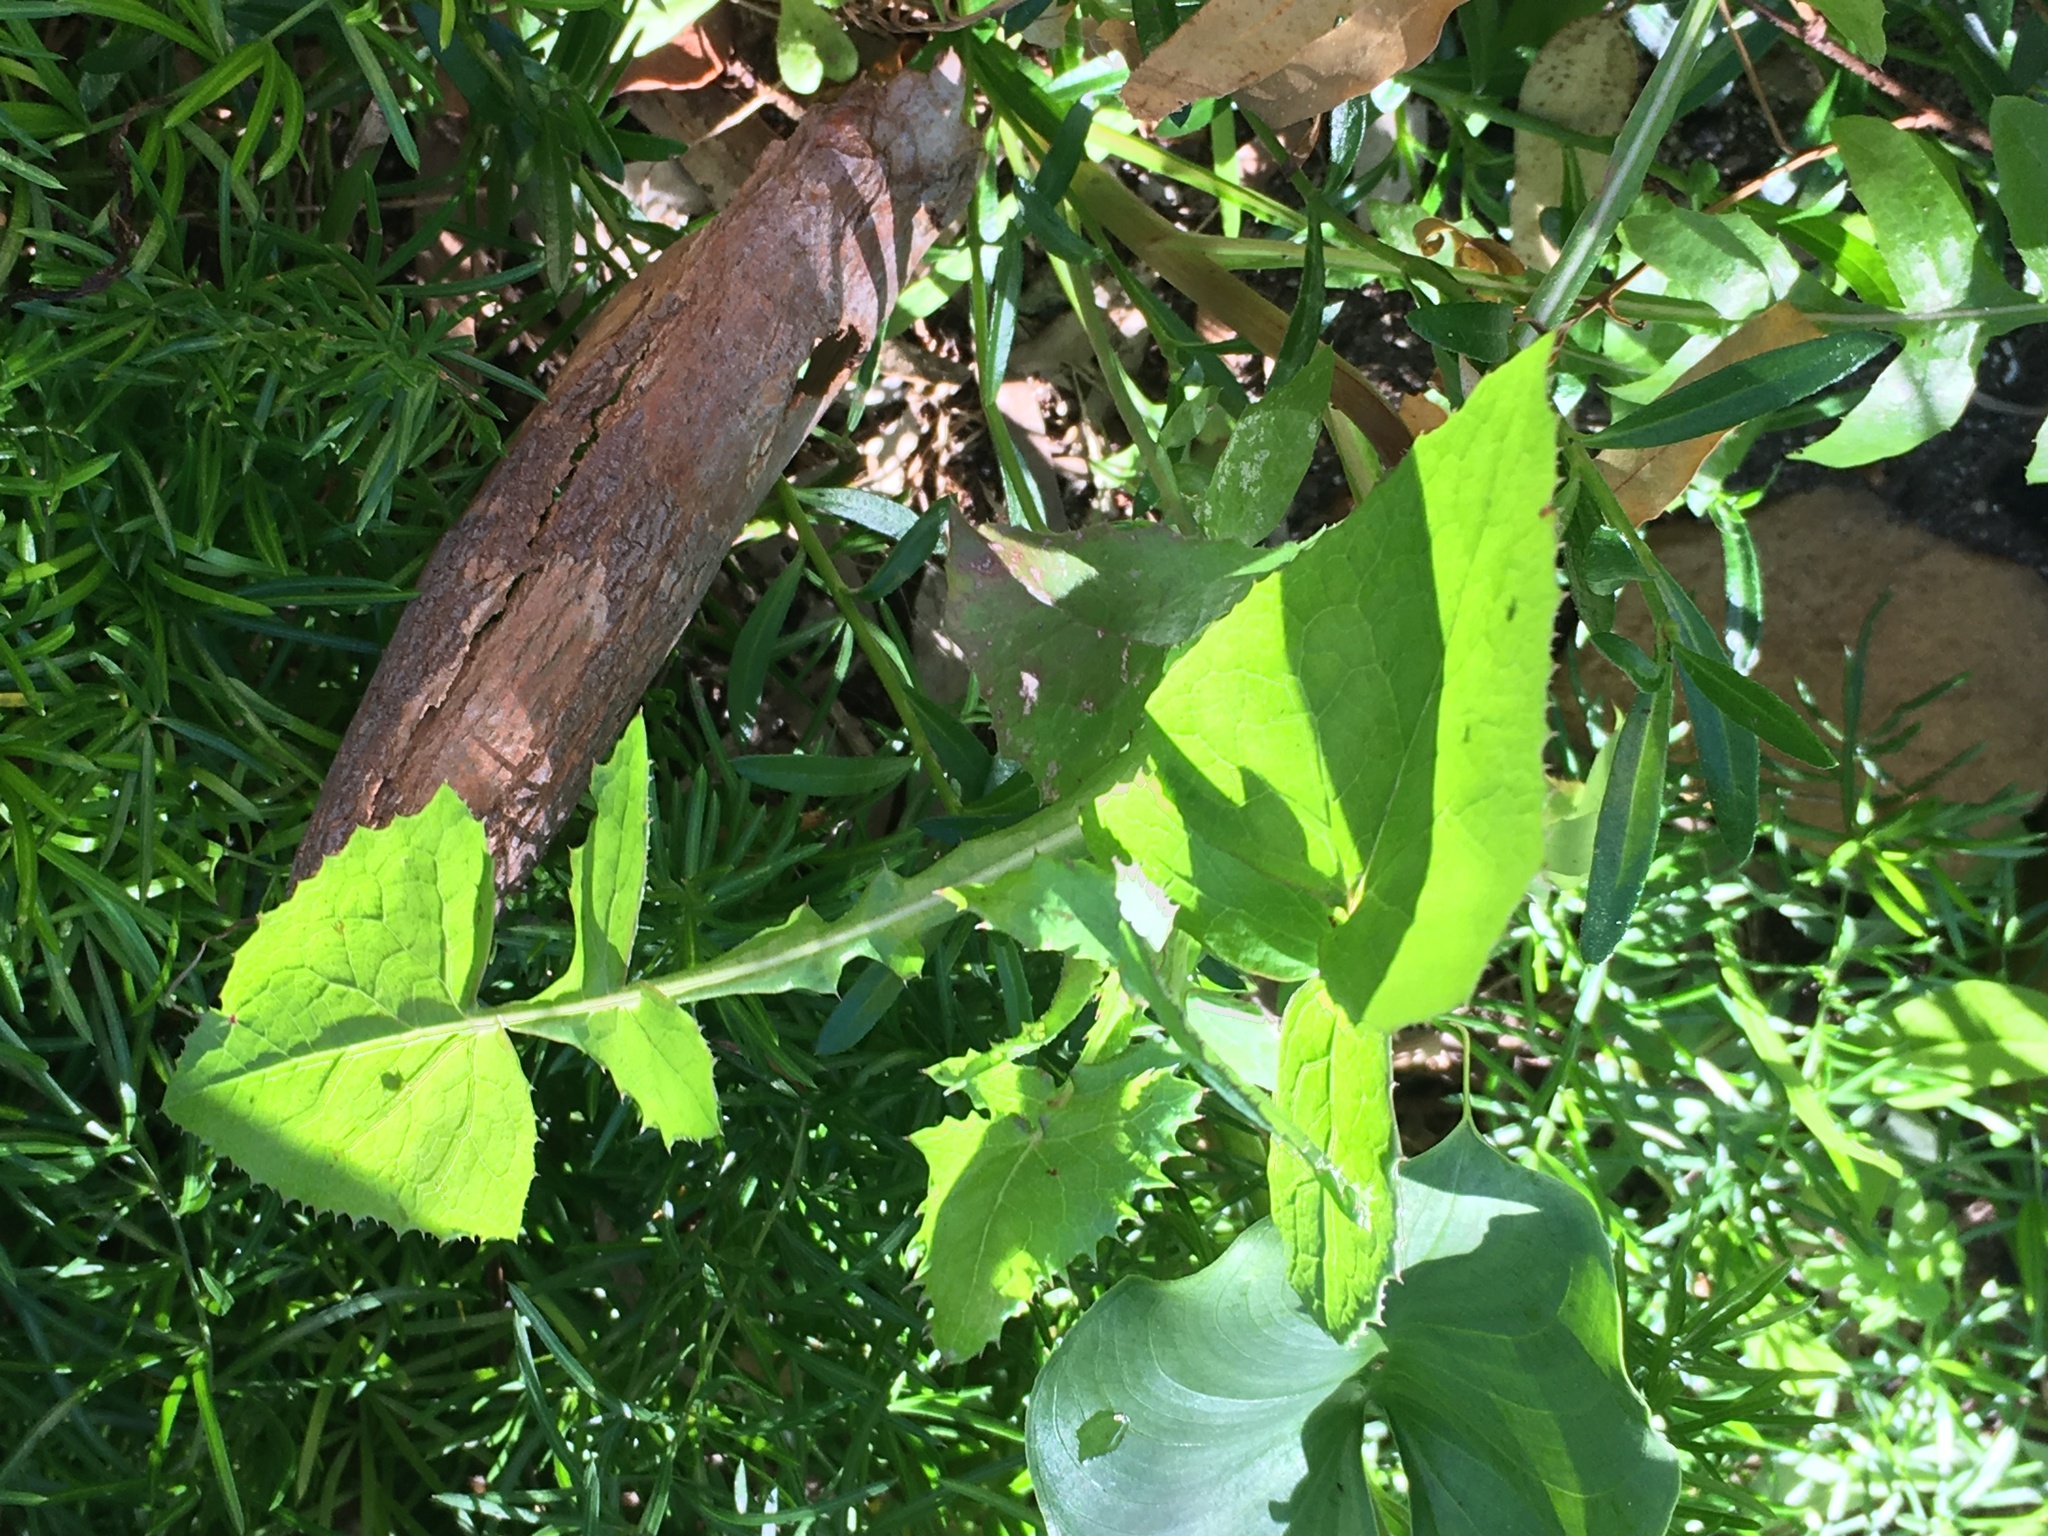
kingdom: Plantae
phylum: Tracheophyta
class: Magnoliopsida
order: Asterales
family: Asteraceae
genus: Sonchus
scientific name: Sonchus oleraceus
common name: Common sowthistle
